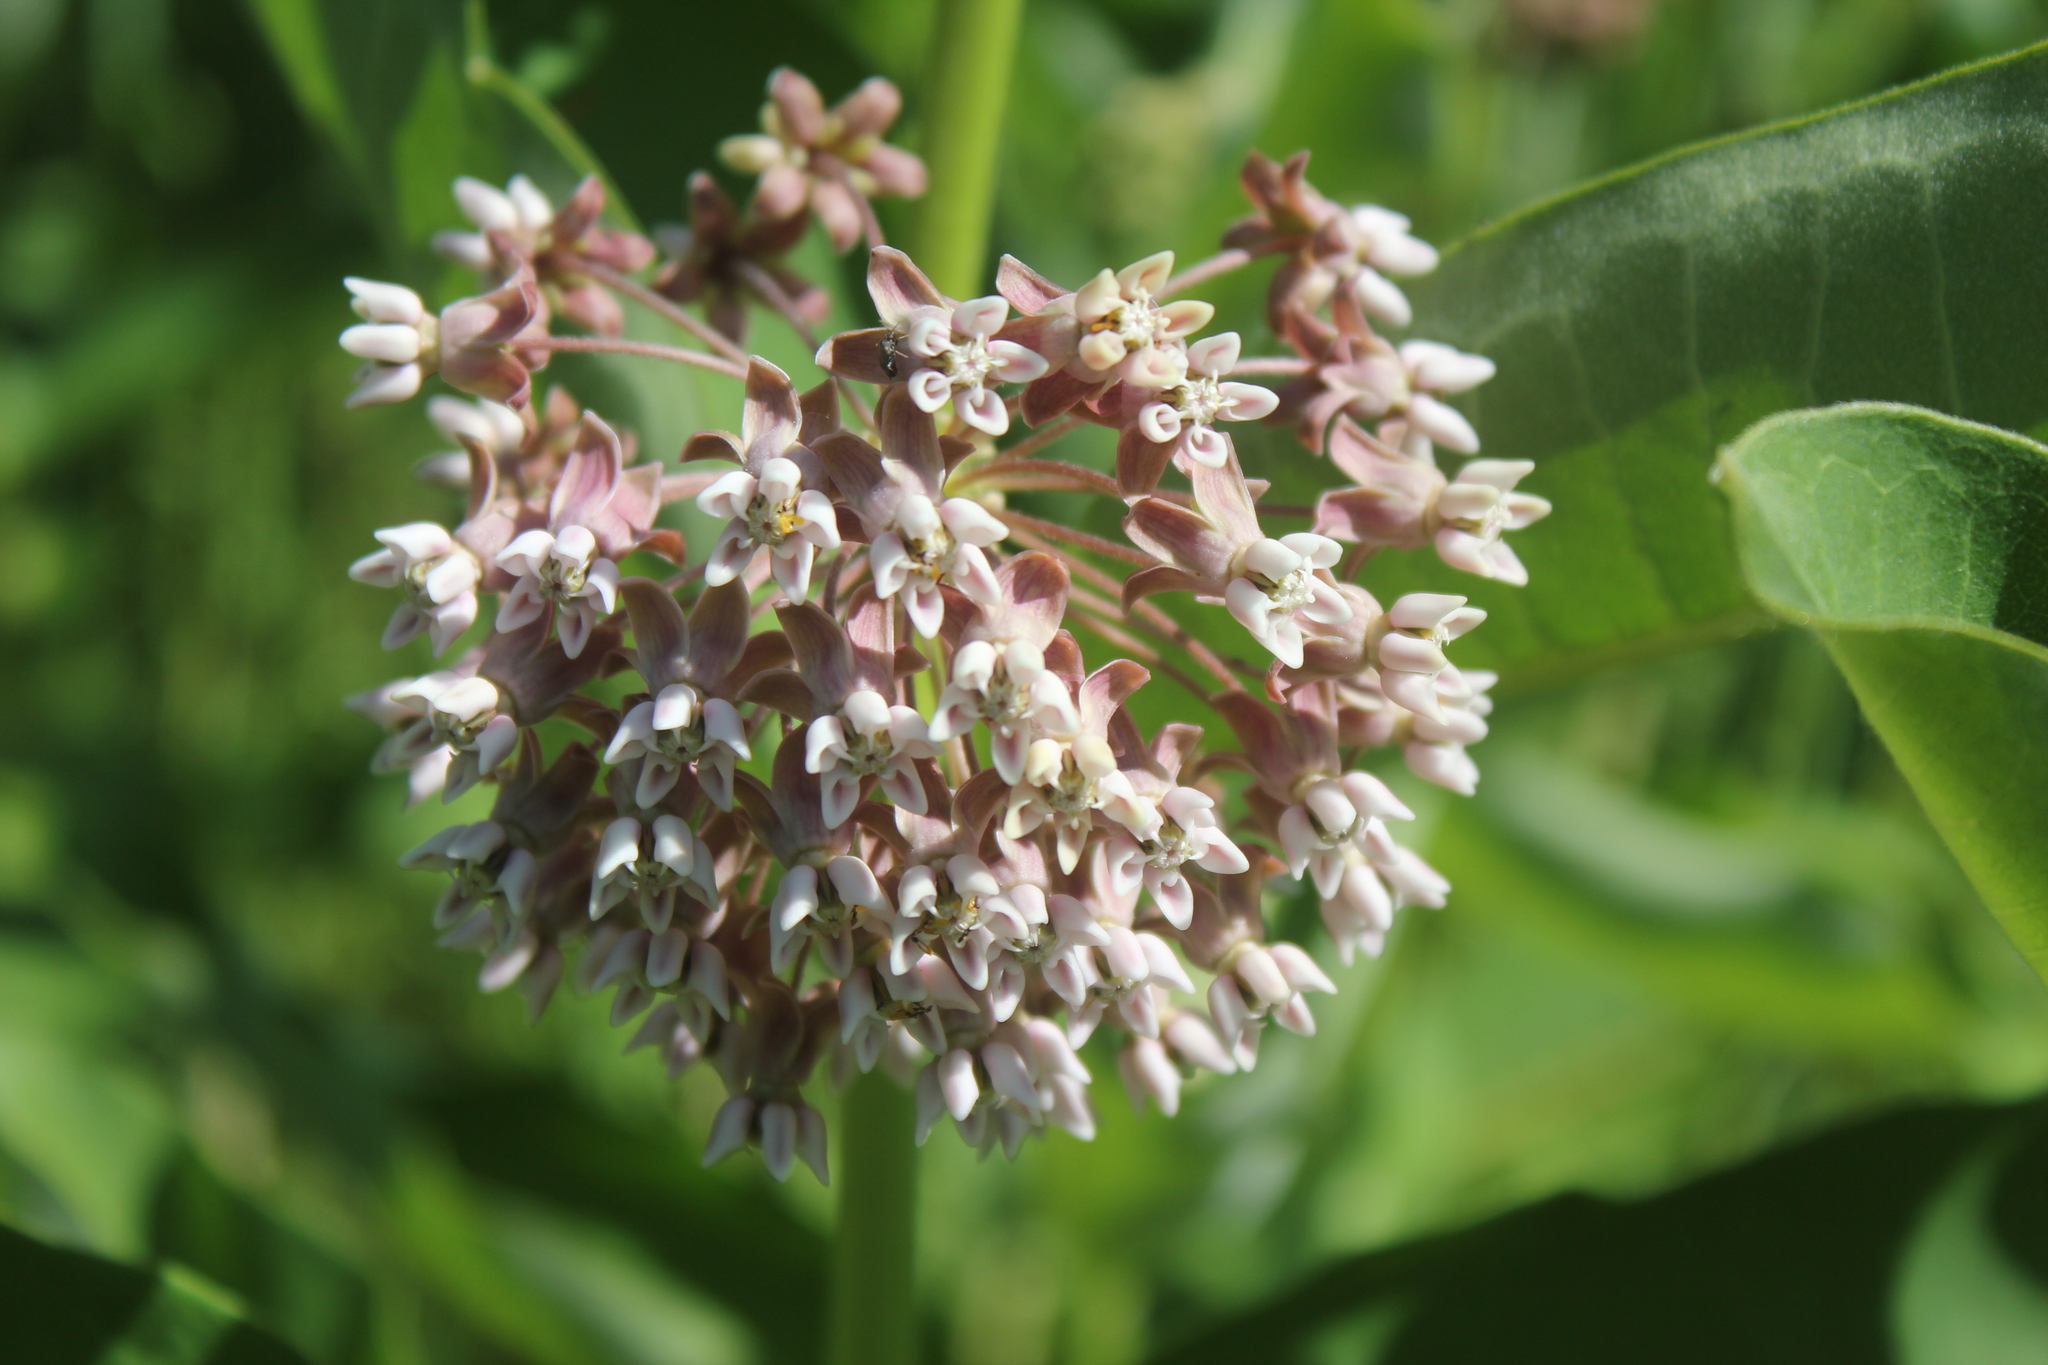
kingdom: Plantae
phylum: Tracheophyta
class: Magnoliopsida
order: Gentianales
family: Apocynaceae
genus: Asclepias
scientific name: Asclepias syriaca
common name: Common milkweed
